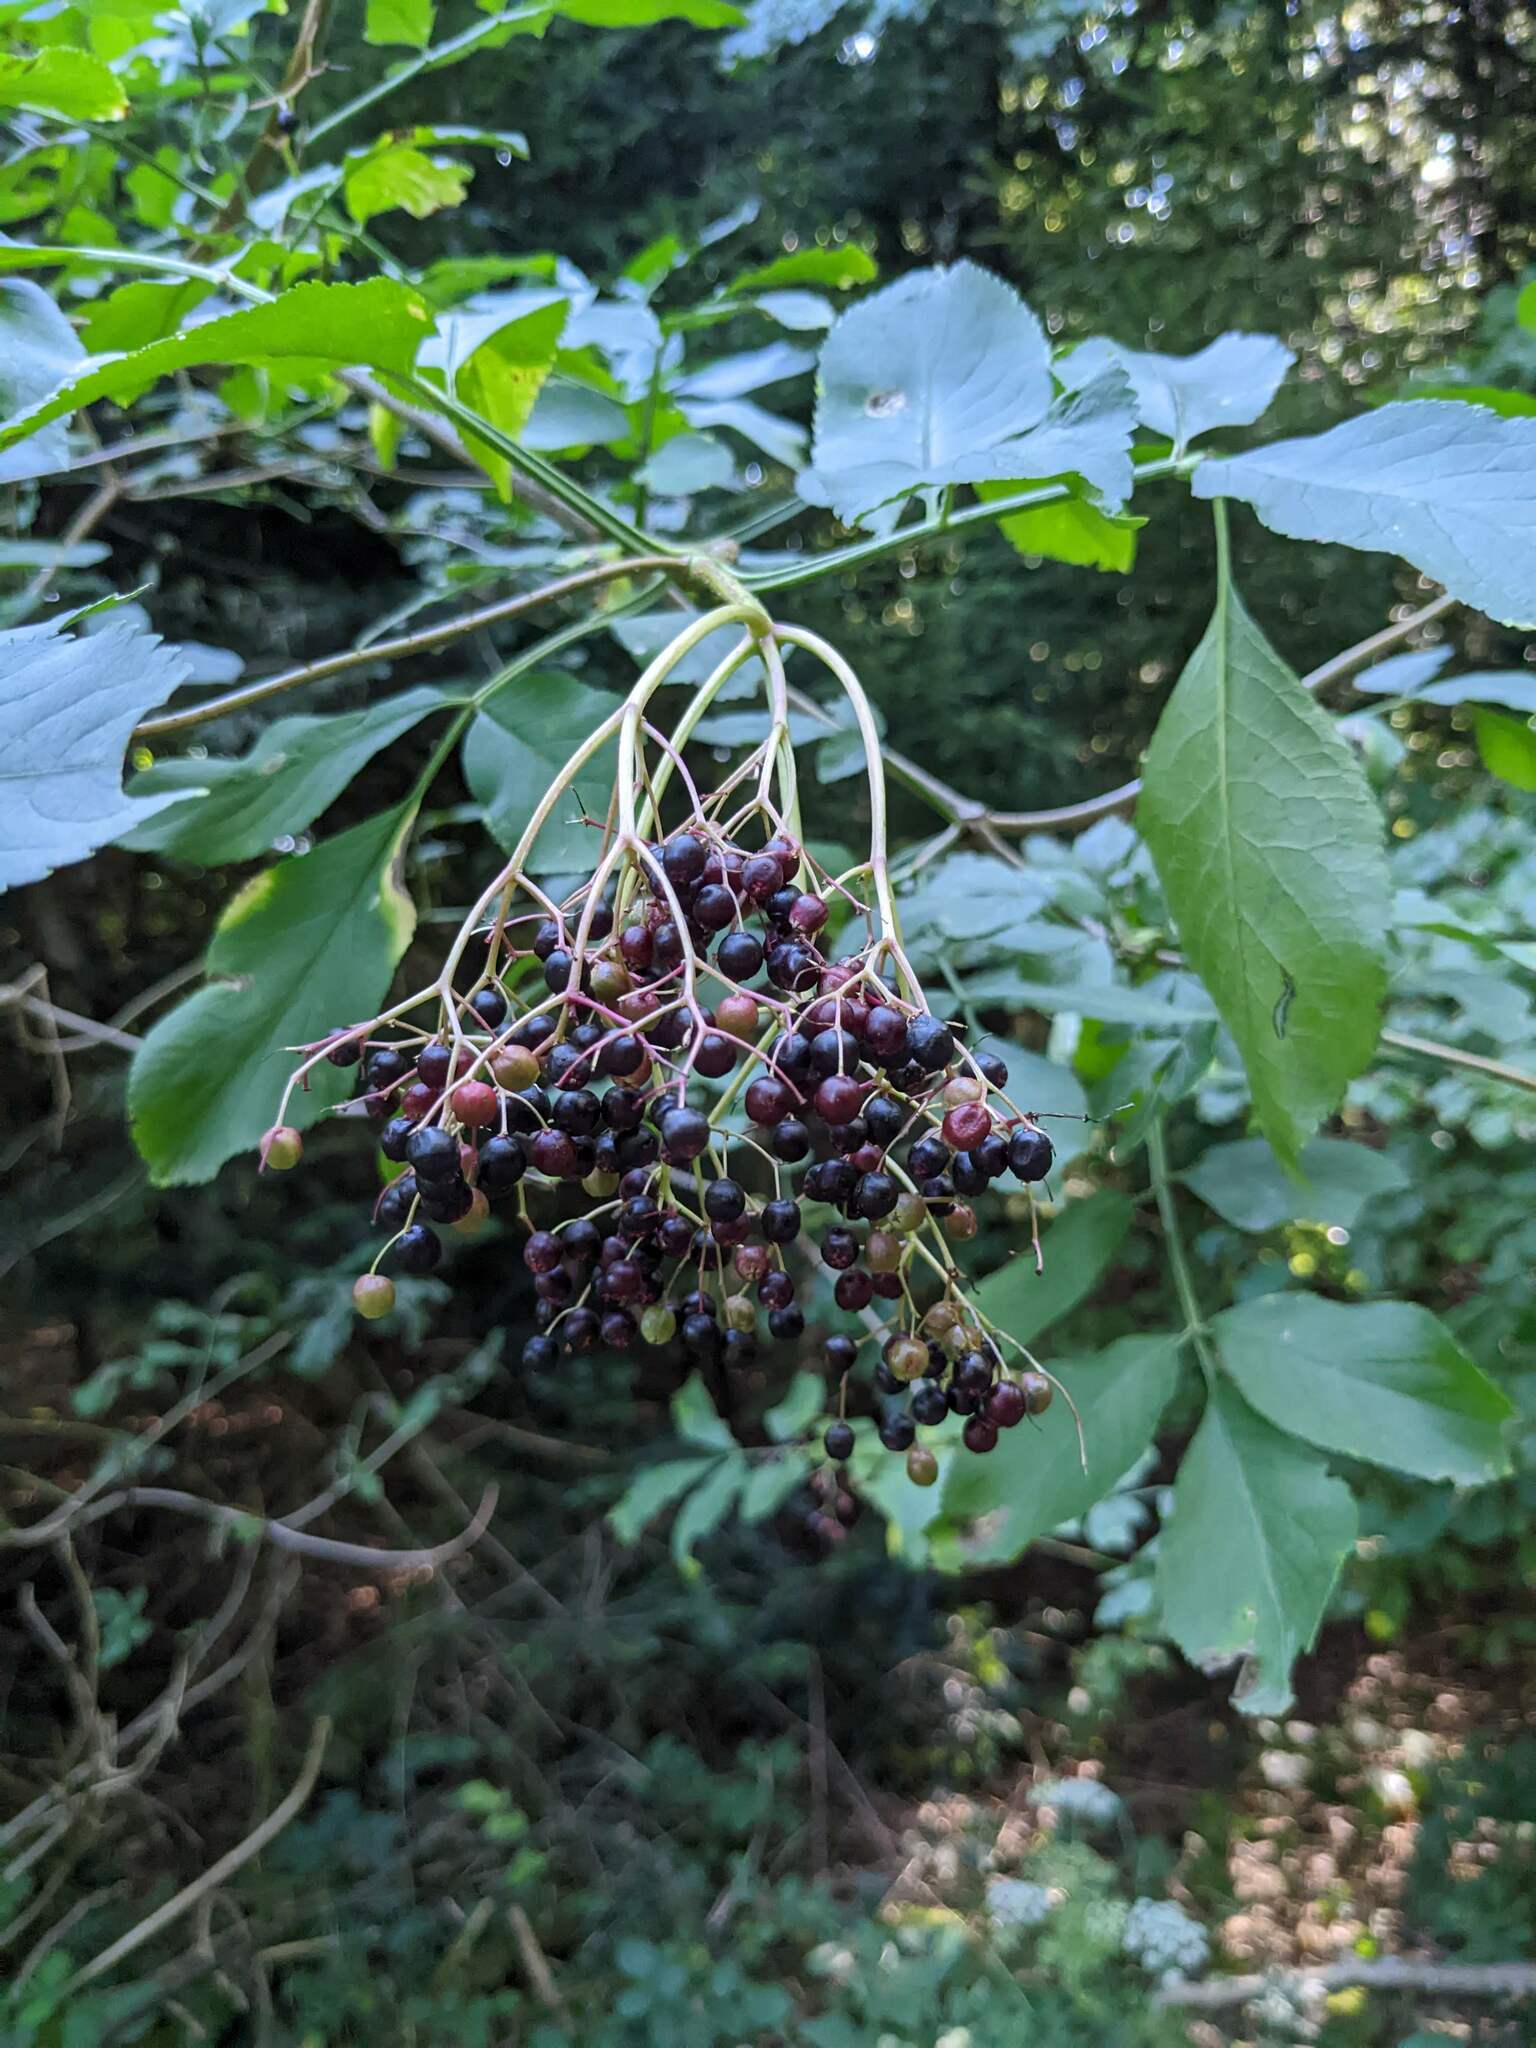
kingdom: Plantae
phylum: Tracheophyta
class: Magnoliopsida
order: Dipsacales
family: Viburnaceae
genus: Sambucus
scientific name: Sambucus nigra
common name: Elder
